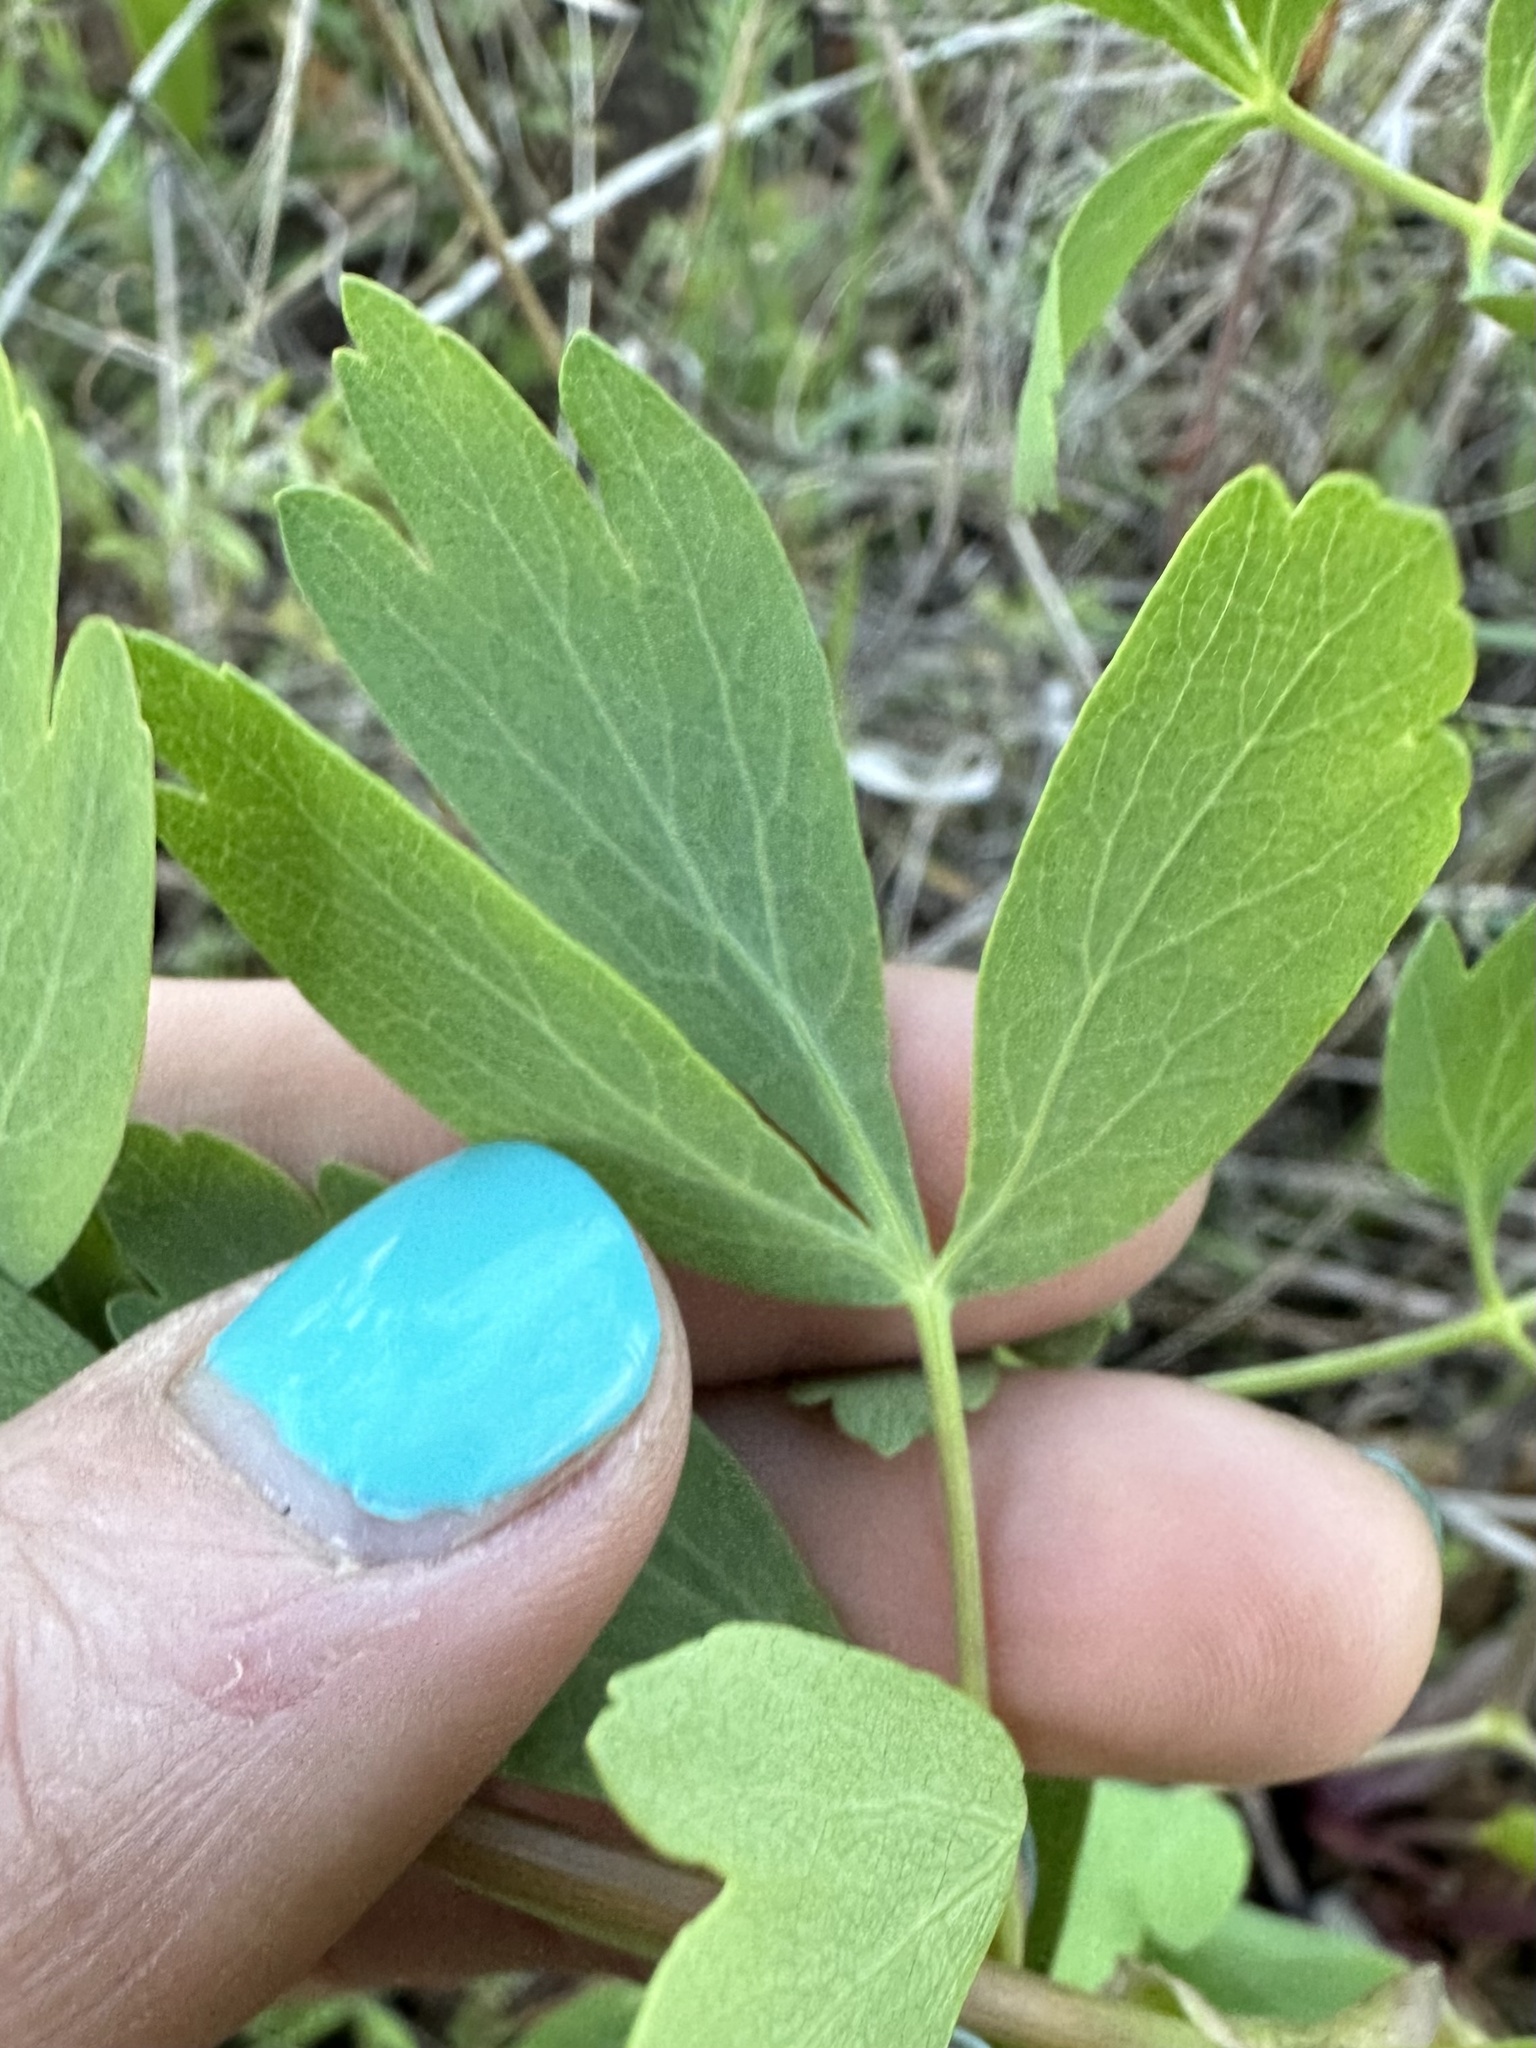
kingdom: Plantae
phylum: Tracheophyta
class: Magnoliopsida
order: Apiales
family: Apiaceae
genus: Lomatium
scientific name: Lomatium californicum
